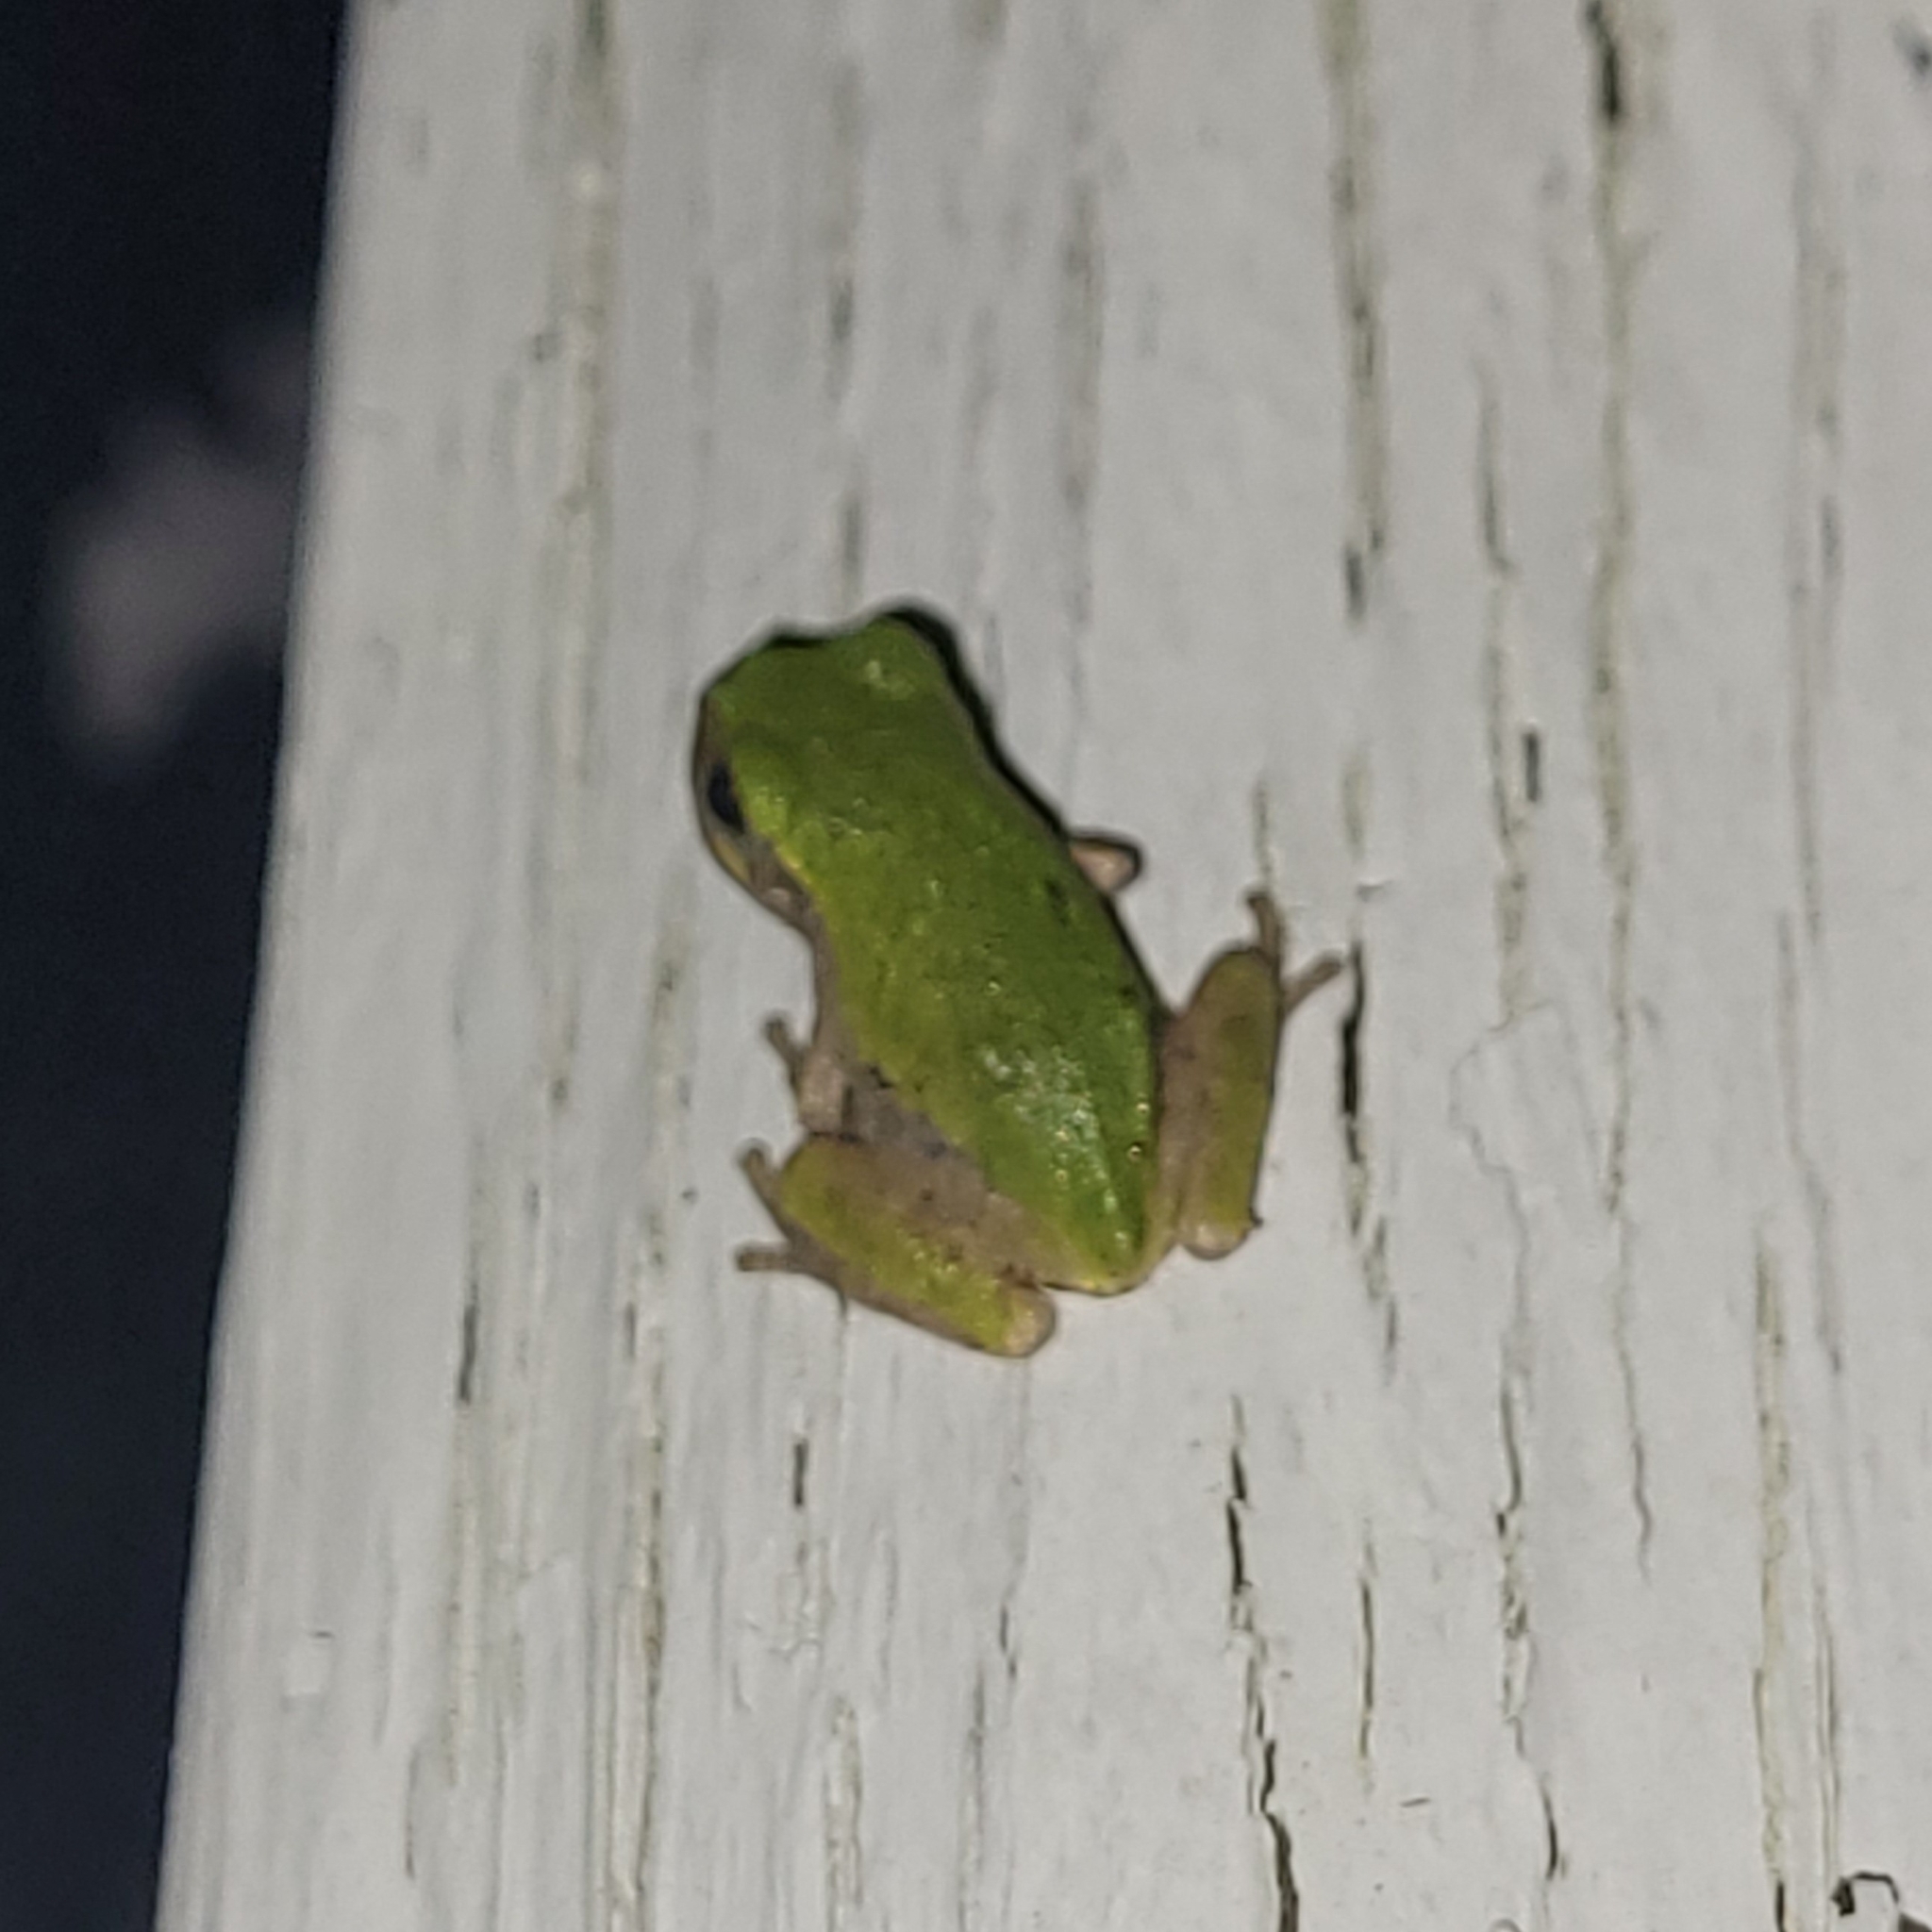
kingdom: Animalia
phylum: Chordata
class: Amphibia
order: Anura
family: Hylidae
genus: Hyla
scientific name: Hyla
